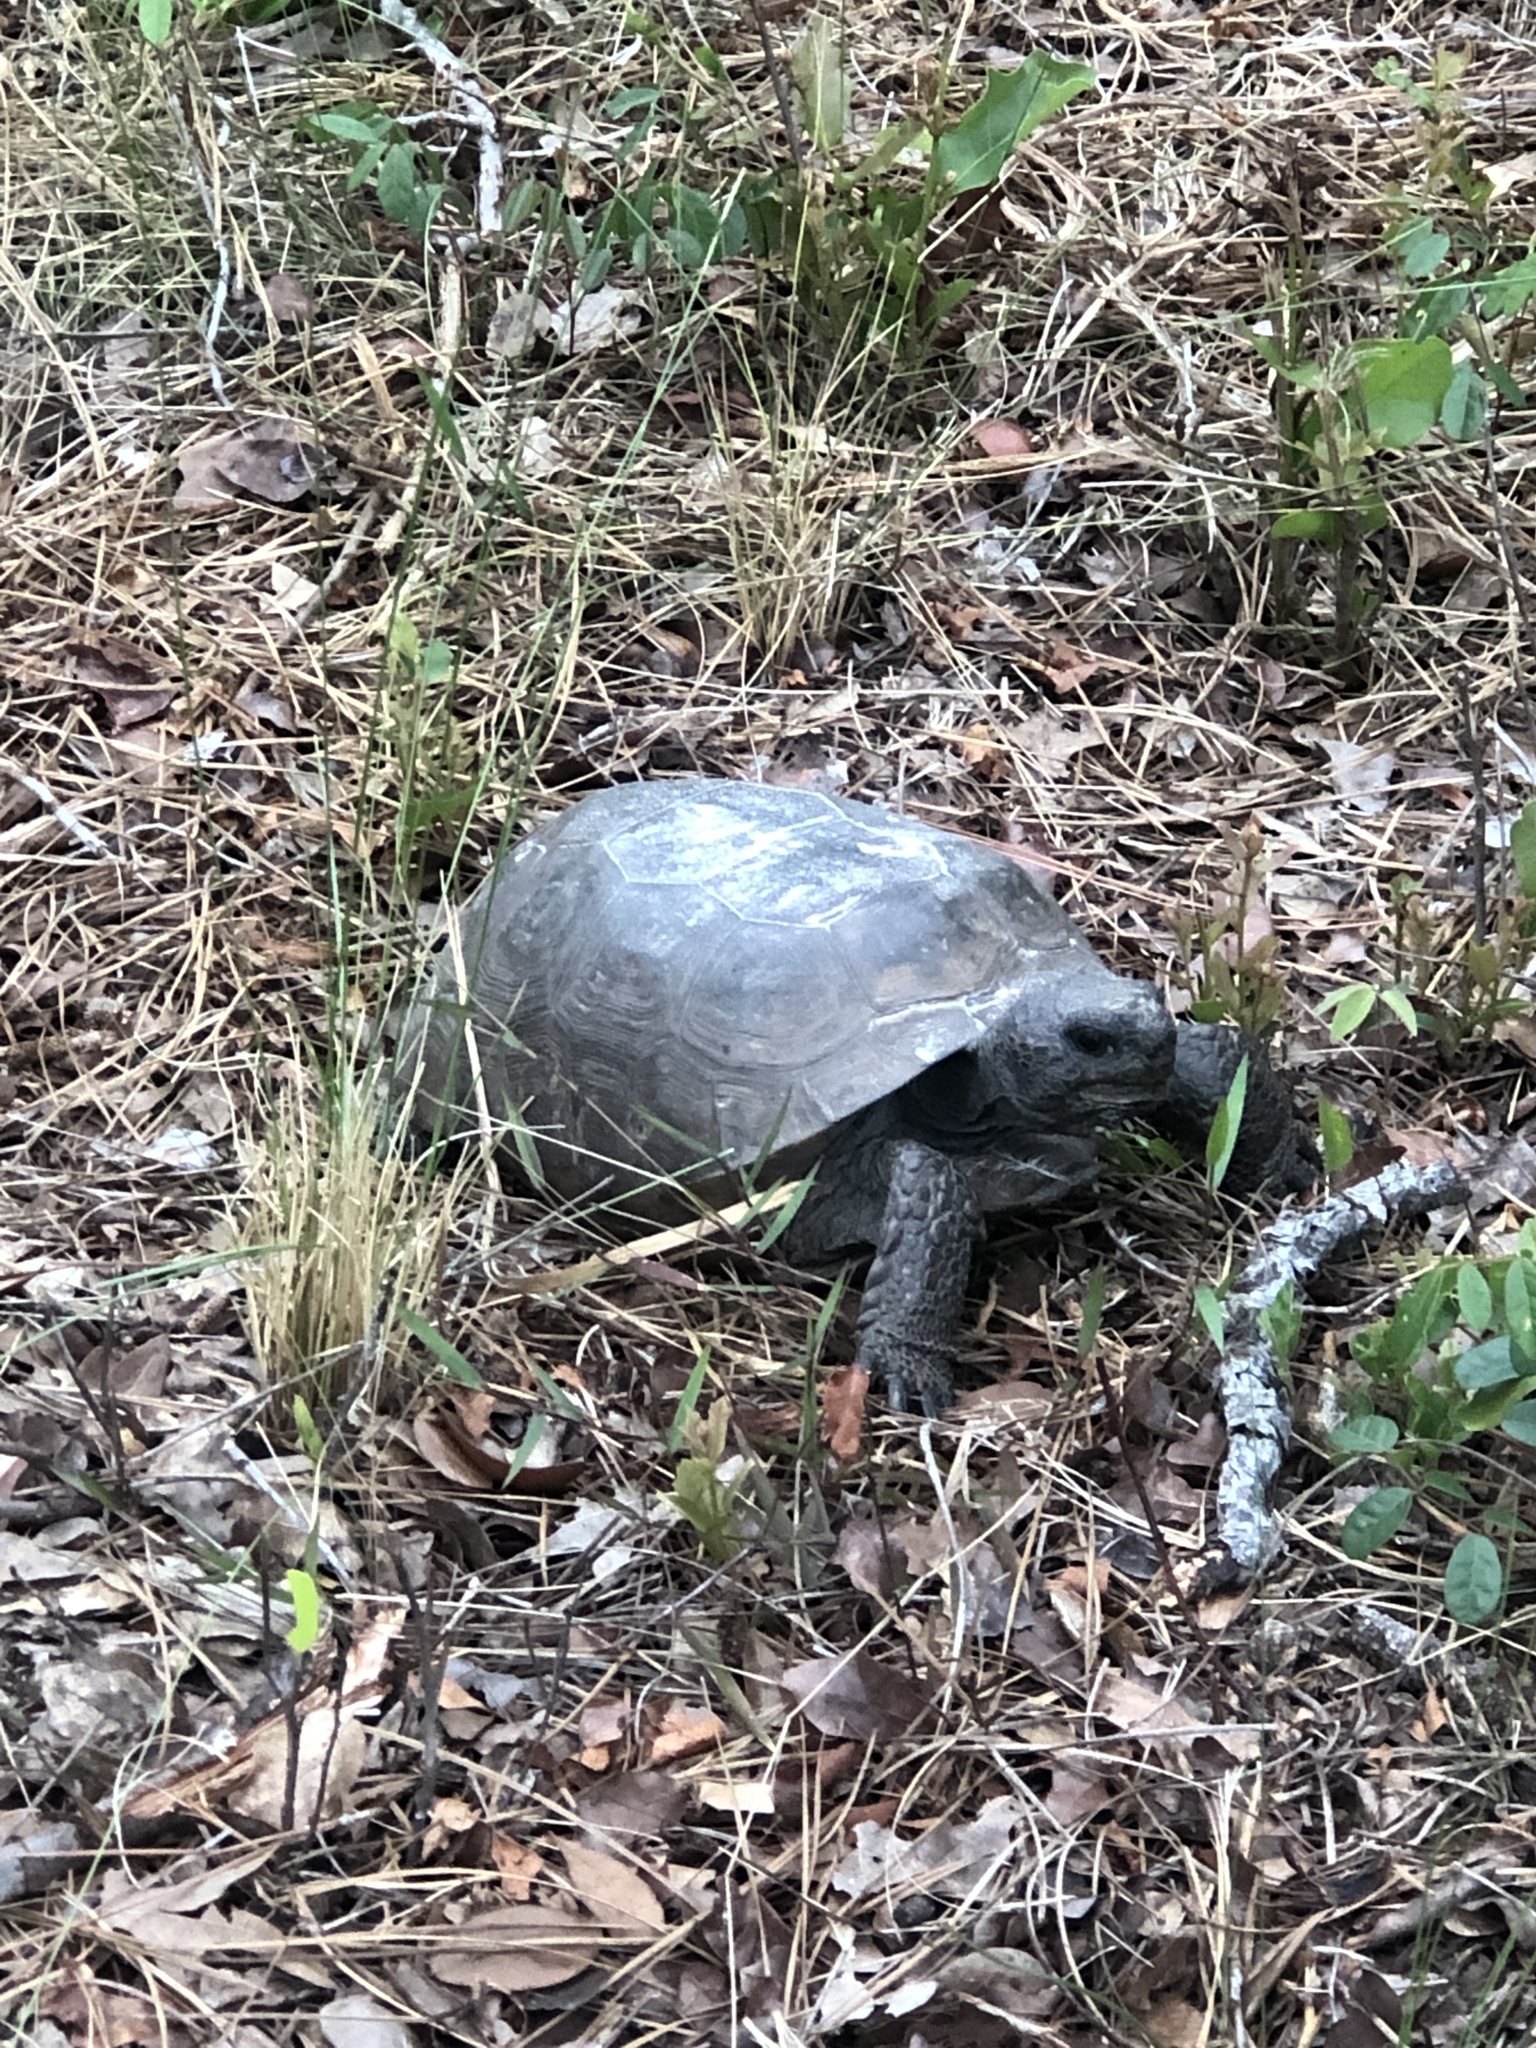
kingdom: Animalia
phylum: Chordata
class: Testudines
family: Testudinidae
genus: Gopherus
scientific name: Gopherus polyphemus
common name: Florida gopher tortoise
